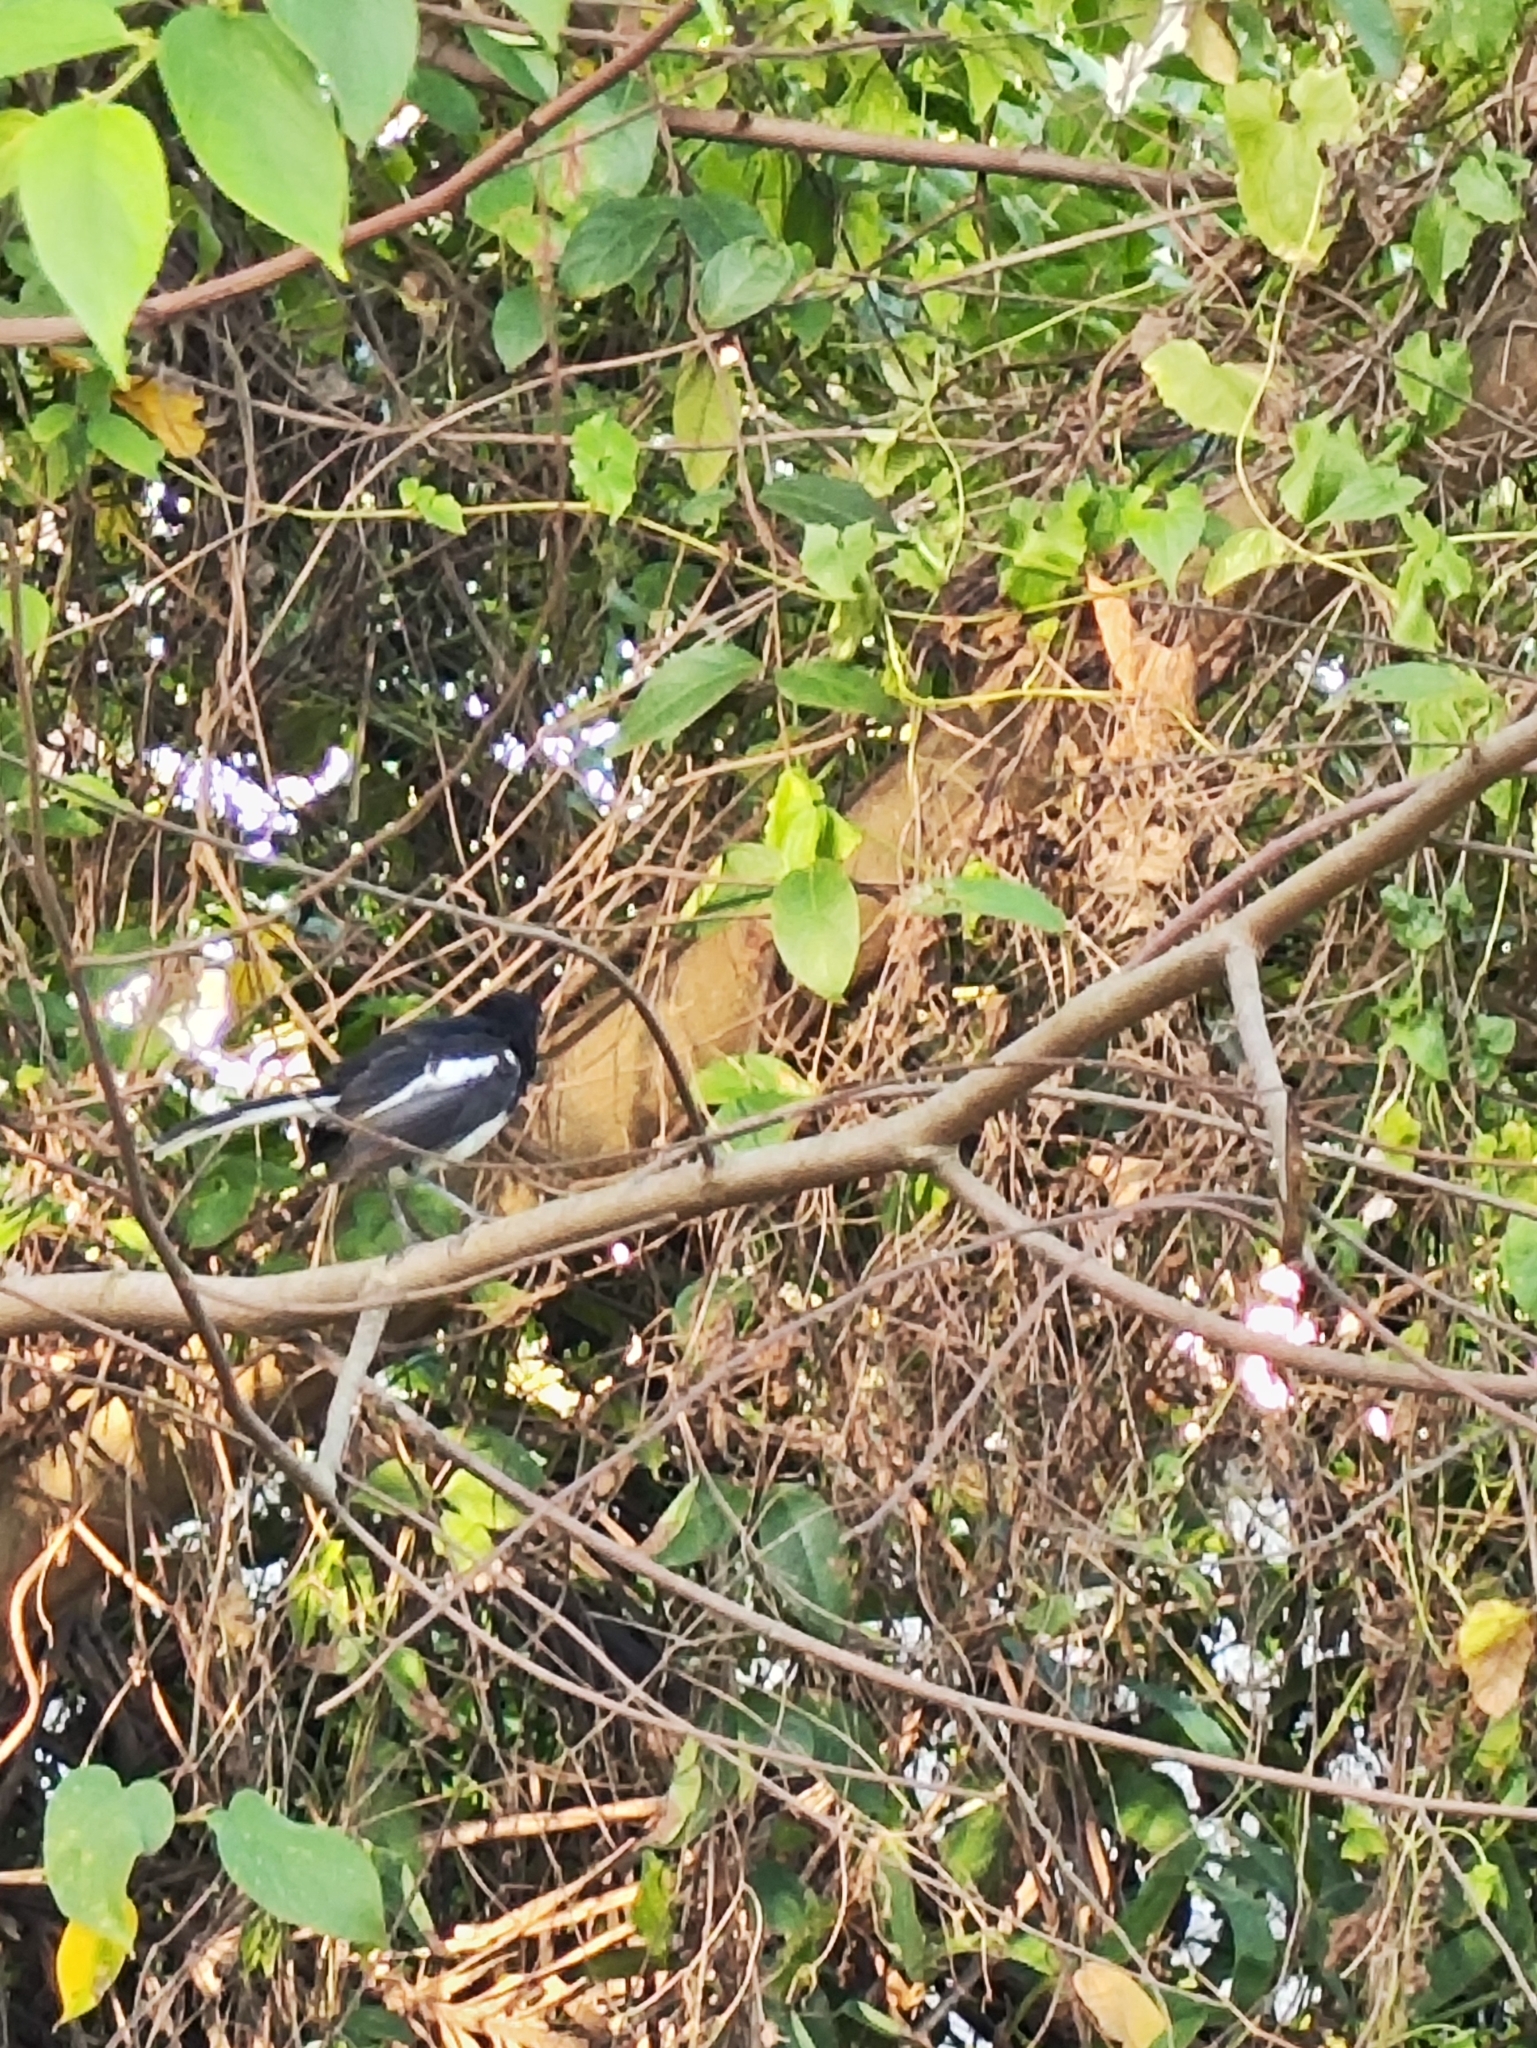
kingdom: Animalia
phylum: Chordata
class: Aves
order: Passeriformes
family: Muscicapidae
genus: Copsychus
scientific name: Copsychus saularis
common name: Oriental magpie-robin
